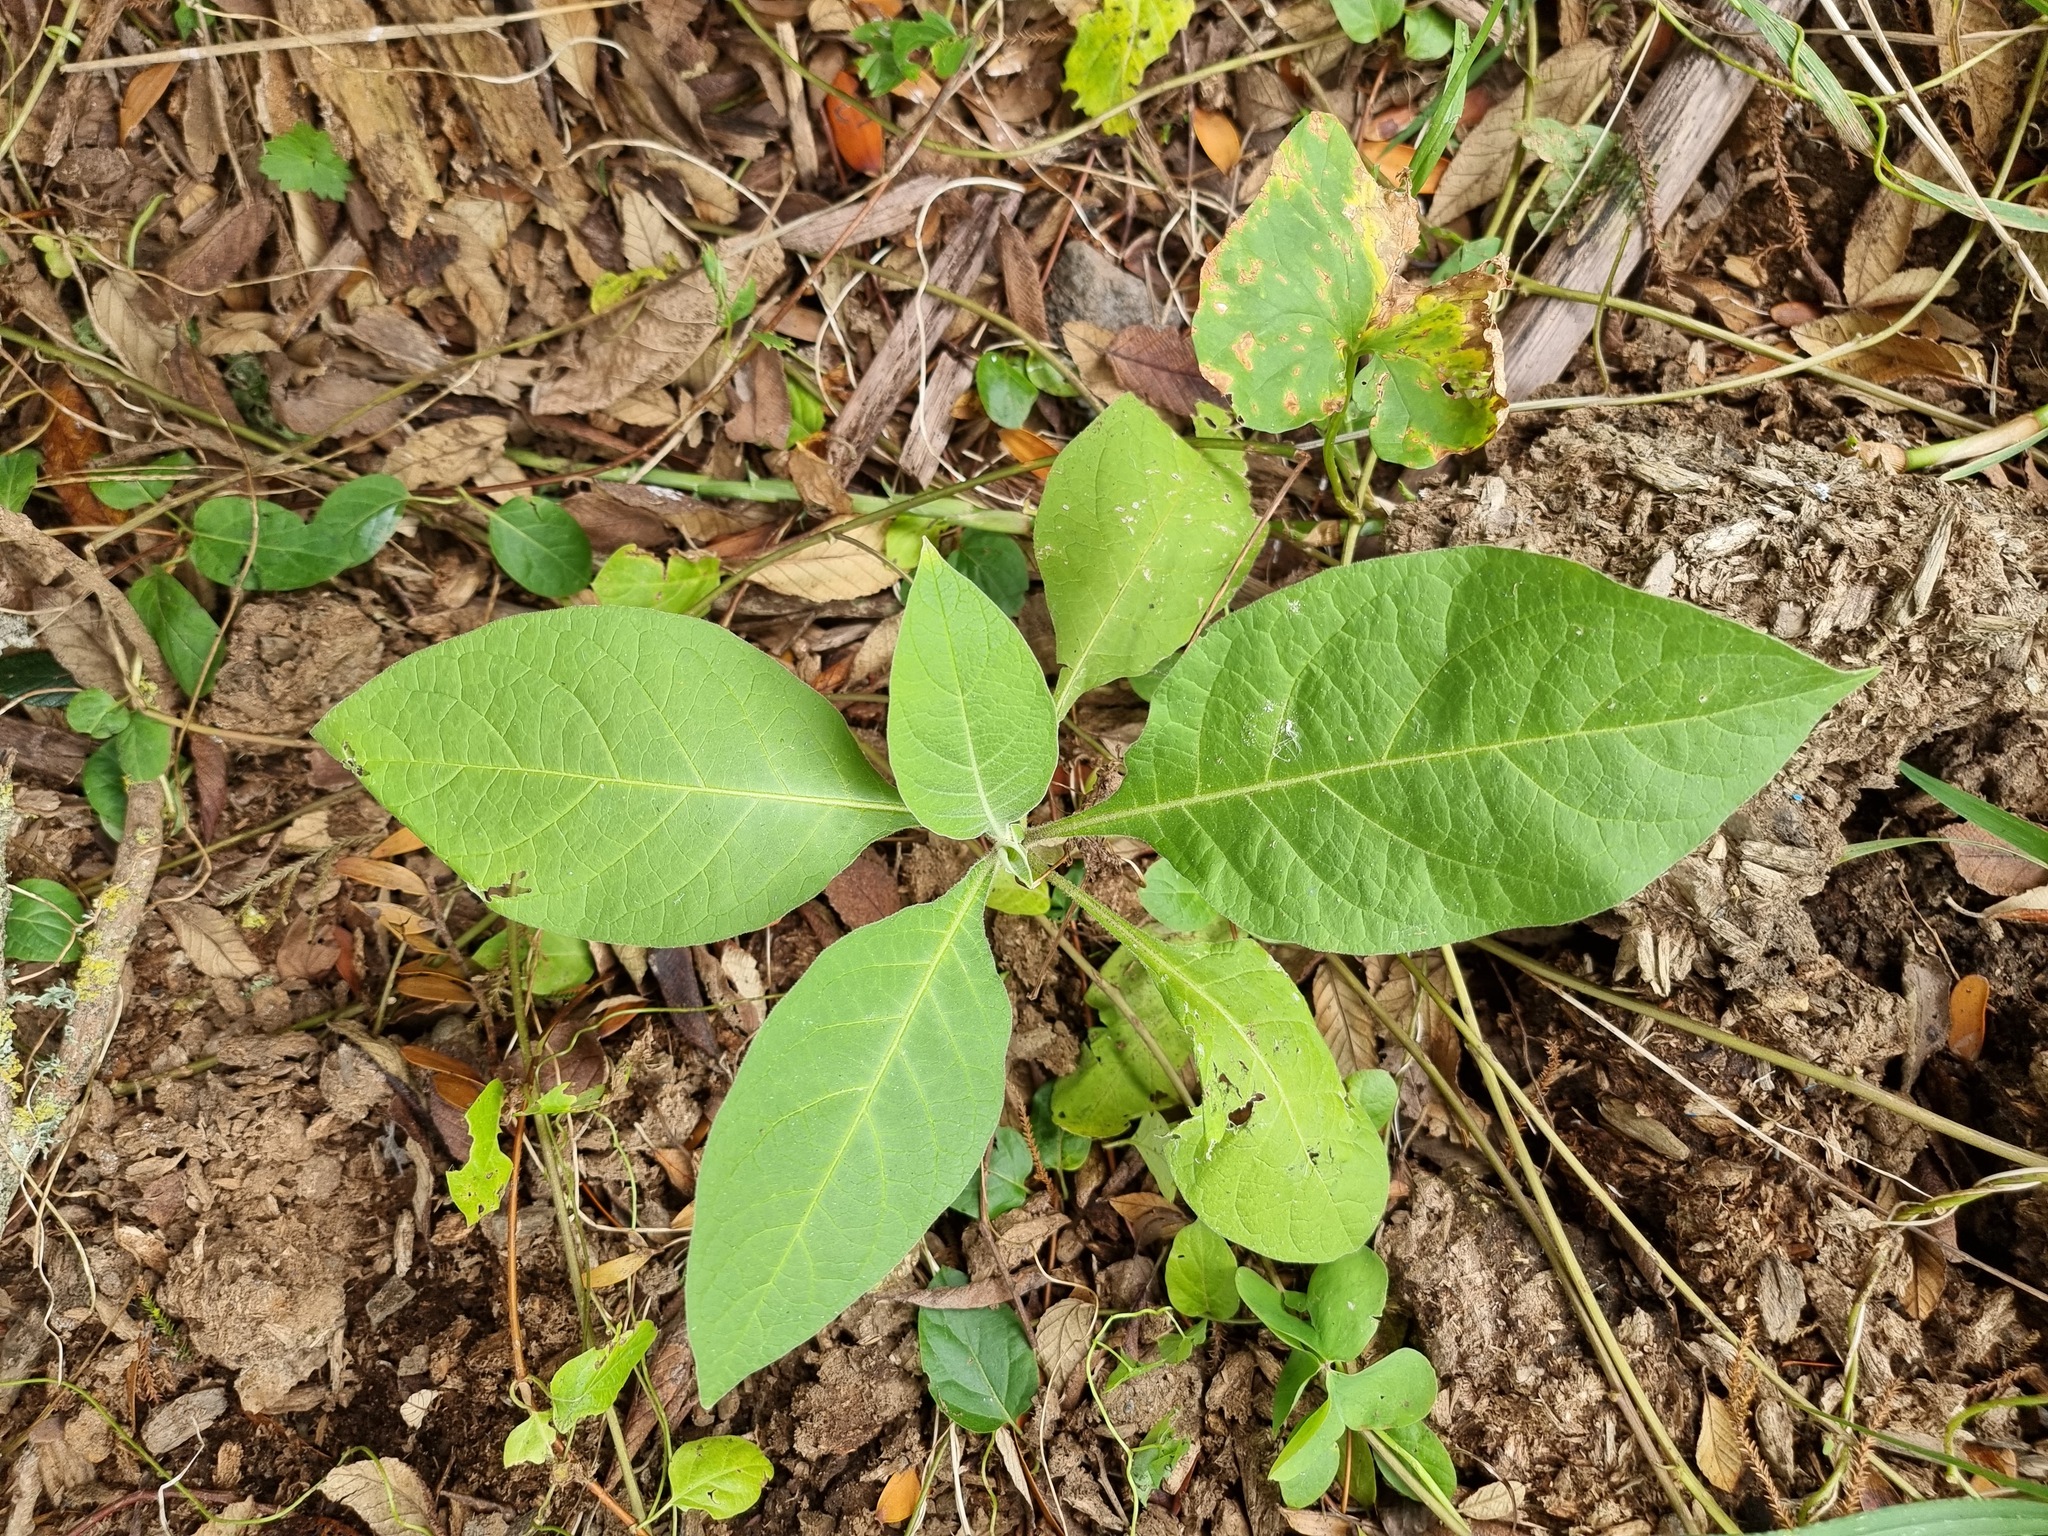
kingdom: Plantae
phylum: Tracheophyta
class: Magnoliopsida
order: Solanales
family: Solanaceae
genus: Solanum
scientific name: Solanum mauritianum
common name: Earleaf nightshade
